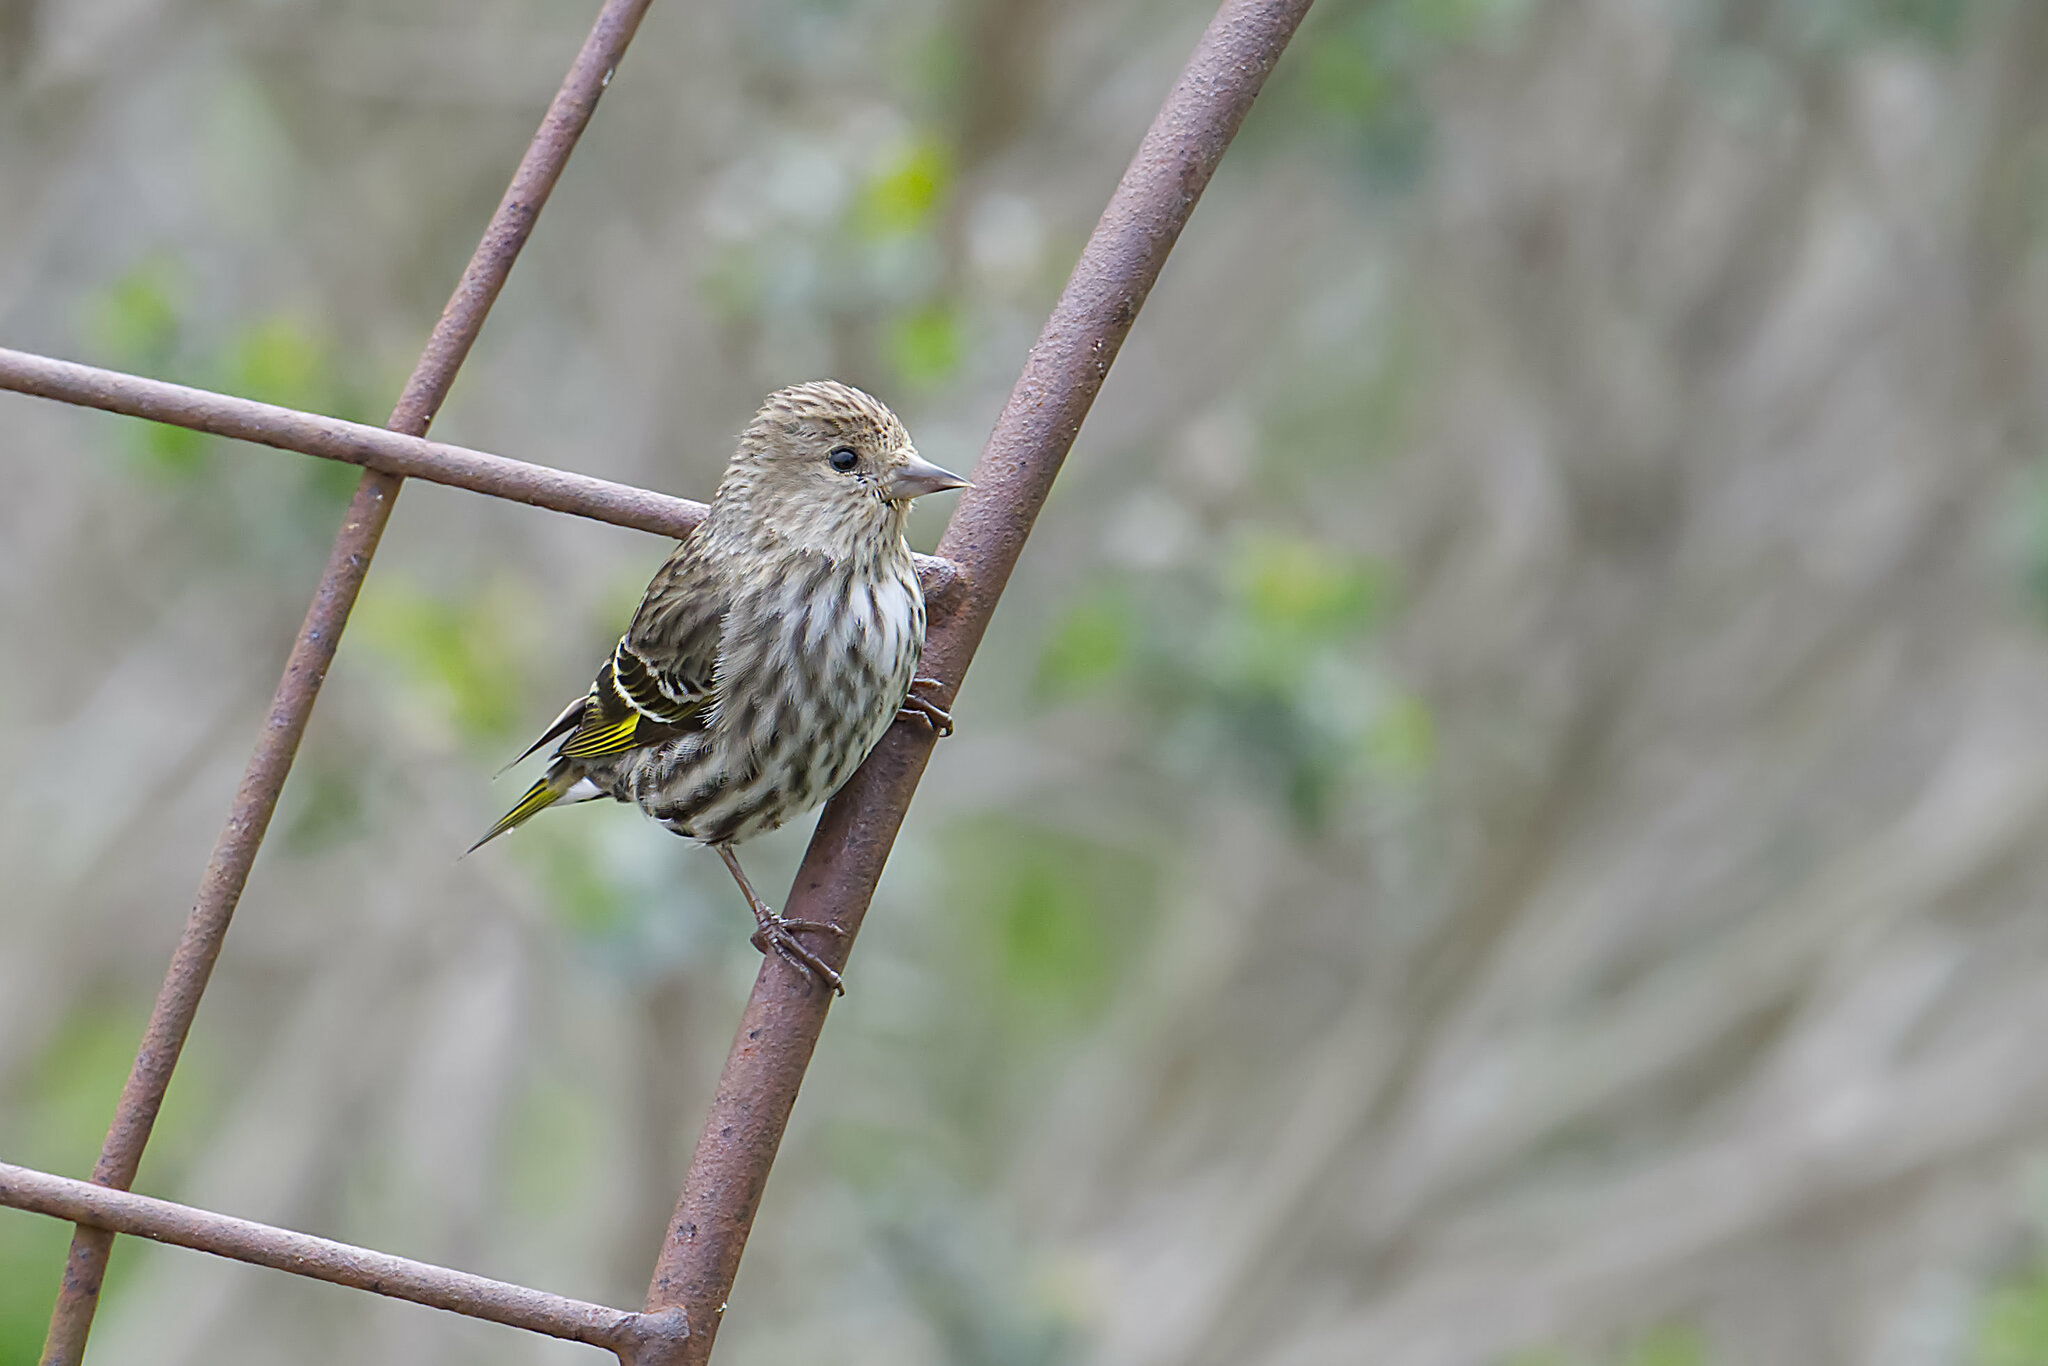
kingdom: Animalia
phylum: Chordata
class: Aves
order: Passeriformes
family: Fringillidae
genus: Spinus
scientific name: Spinus pinus
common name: Pine siskin
